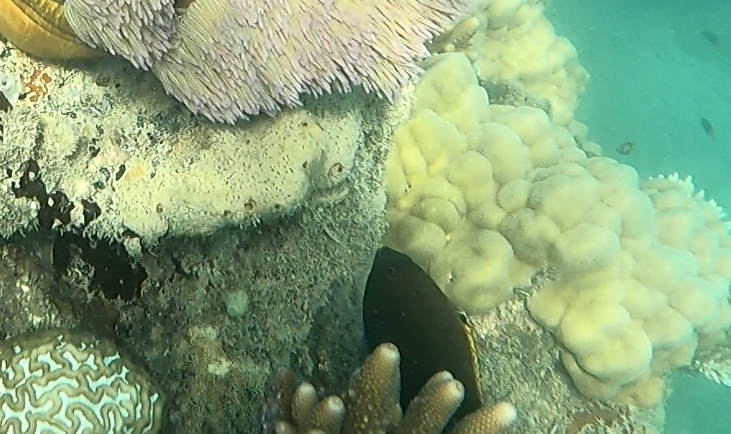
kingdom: Animalia
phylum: Chordata
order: Perciformes
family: Pomacentridae
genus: Stegastes
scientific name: Stegastes apicalis
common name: Australian gregory
